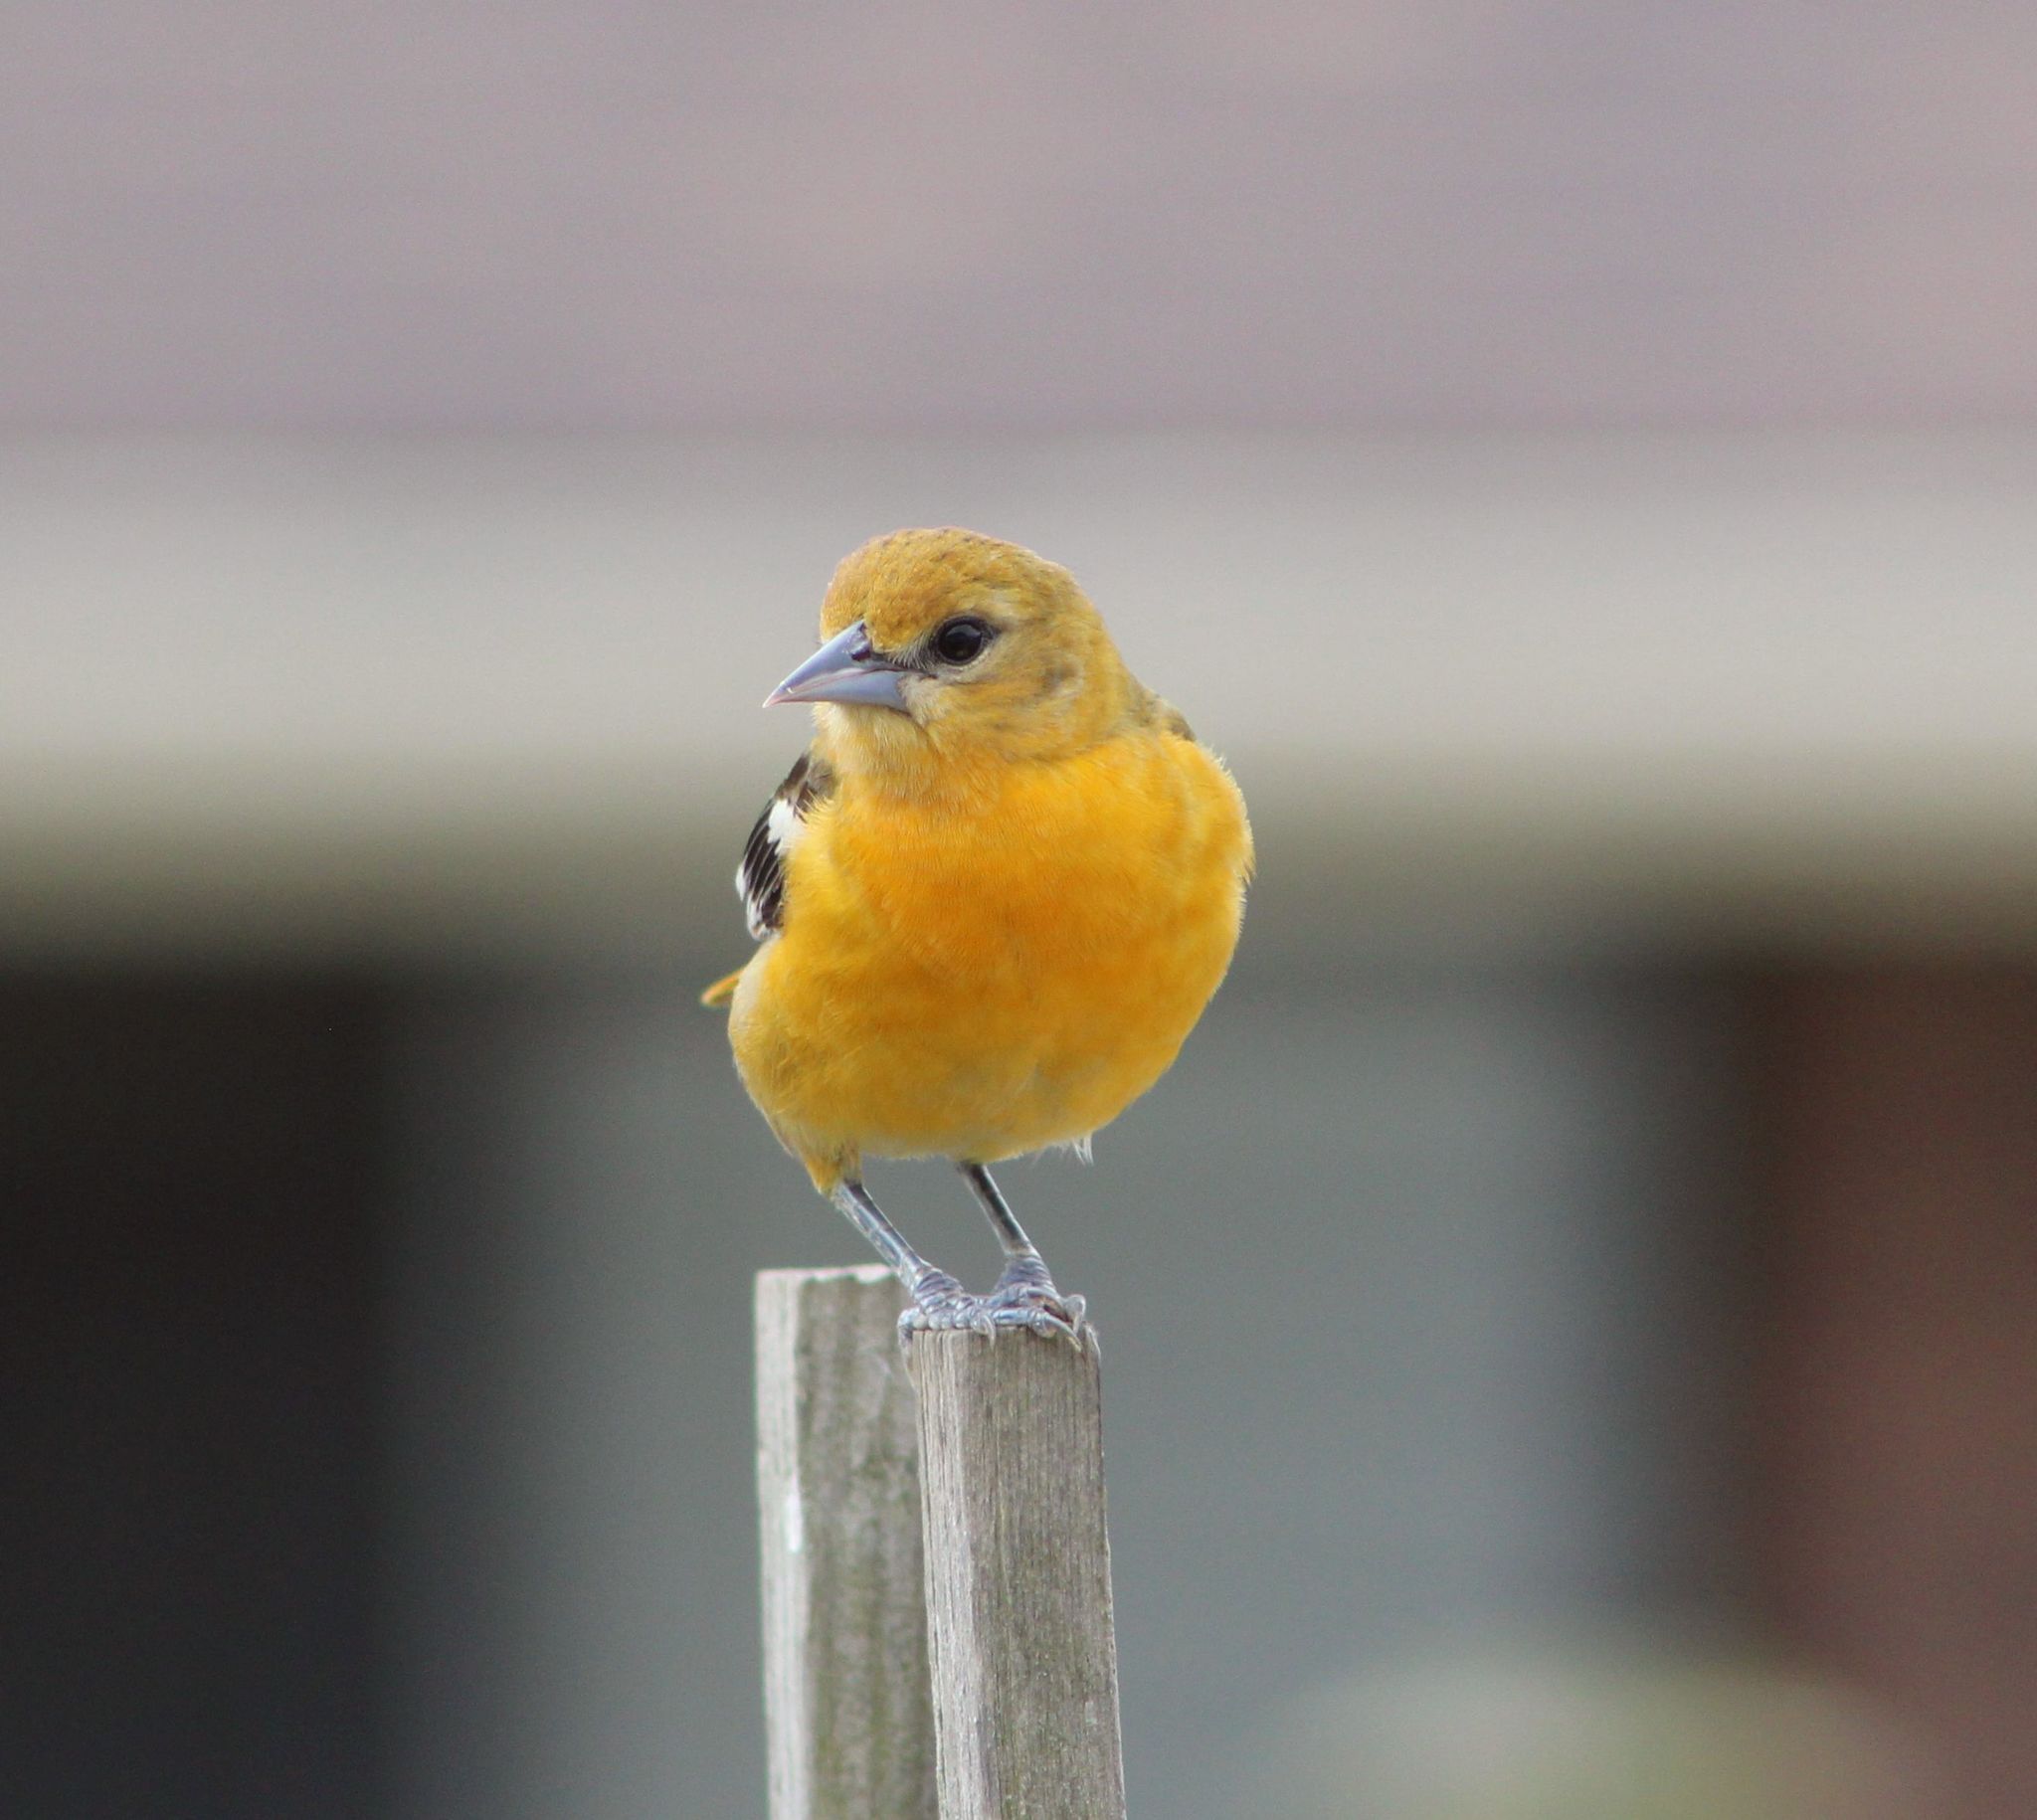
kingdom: Animalia
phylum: Chordata
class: Aves
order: Passeriformes
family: Icteridae
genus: Icterus
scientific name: Icterus galbula
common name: Baltimore oriole
